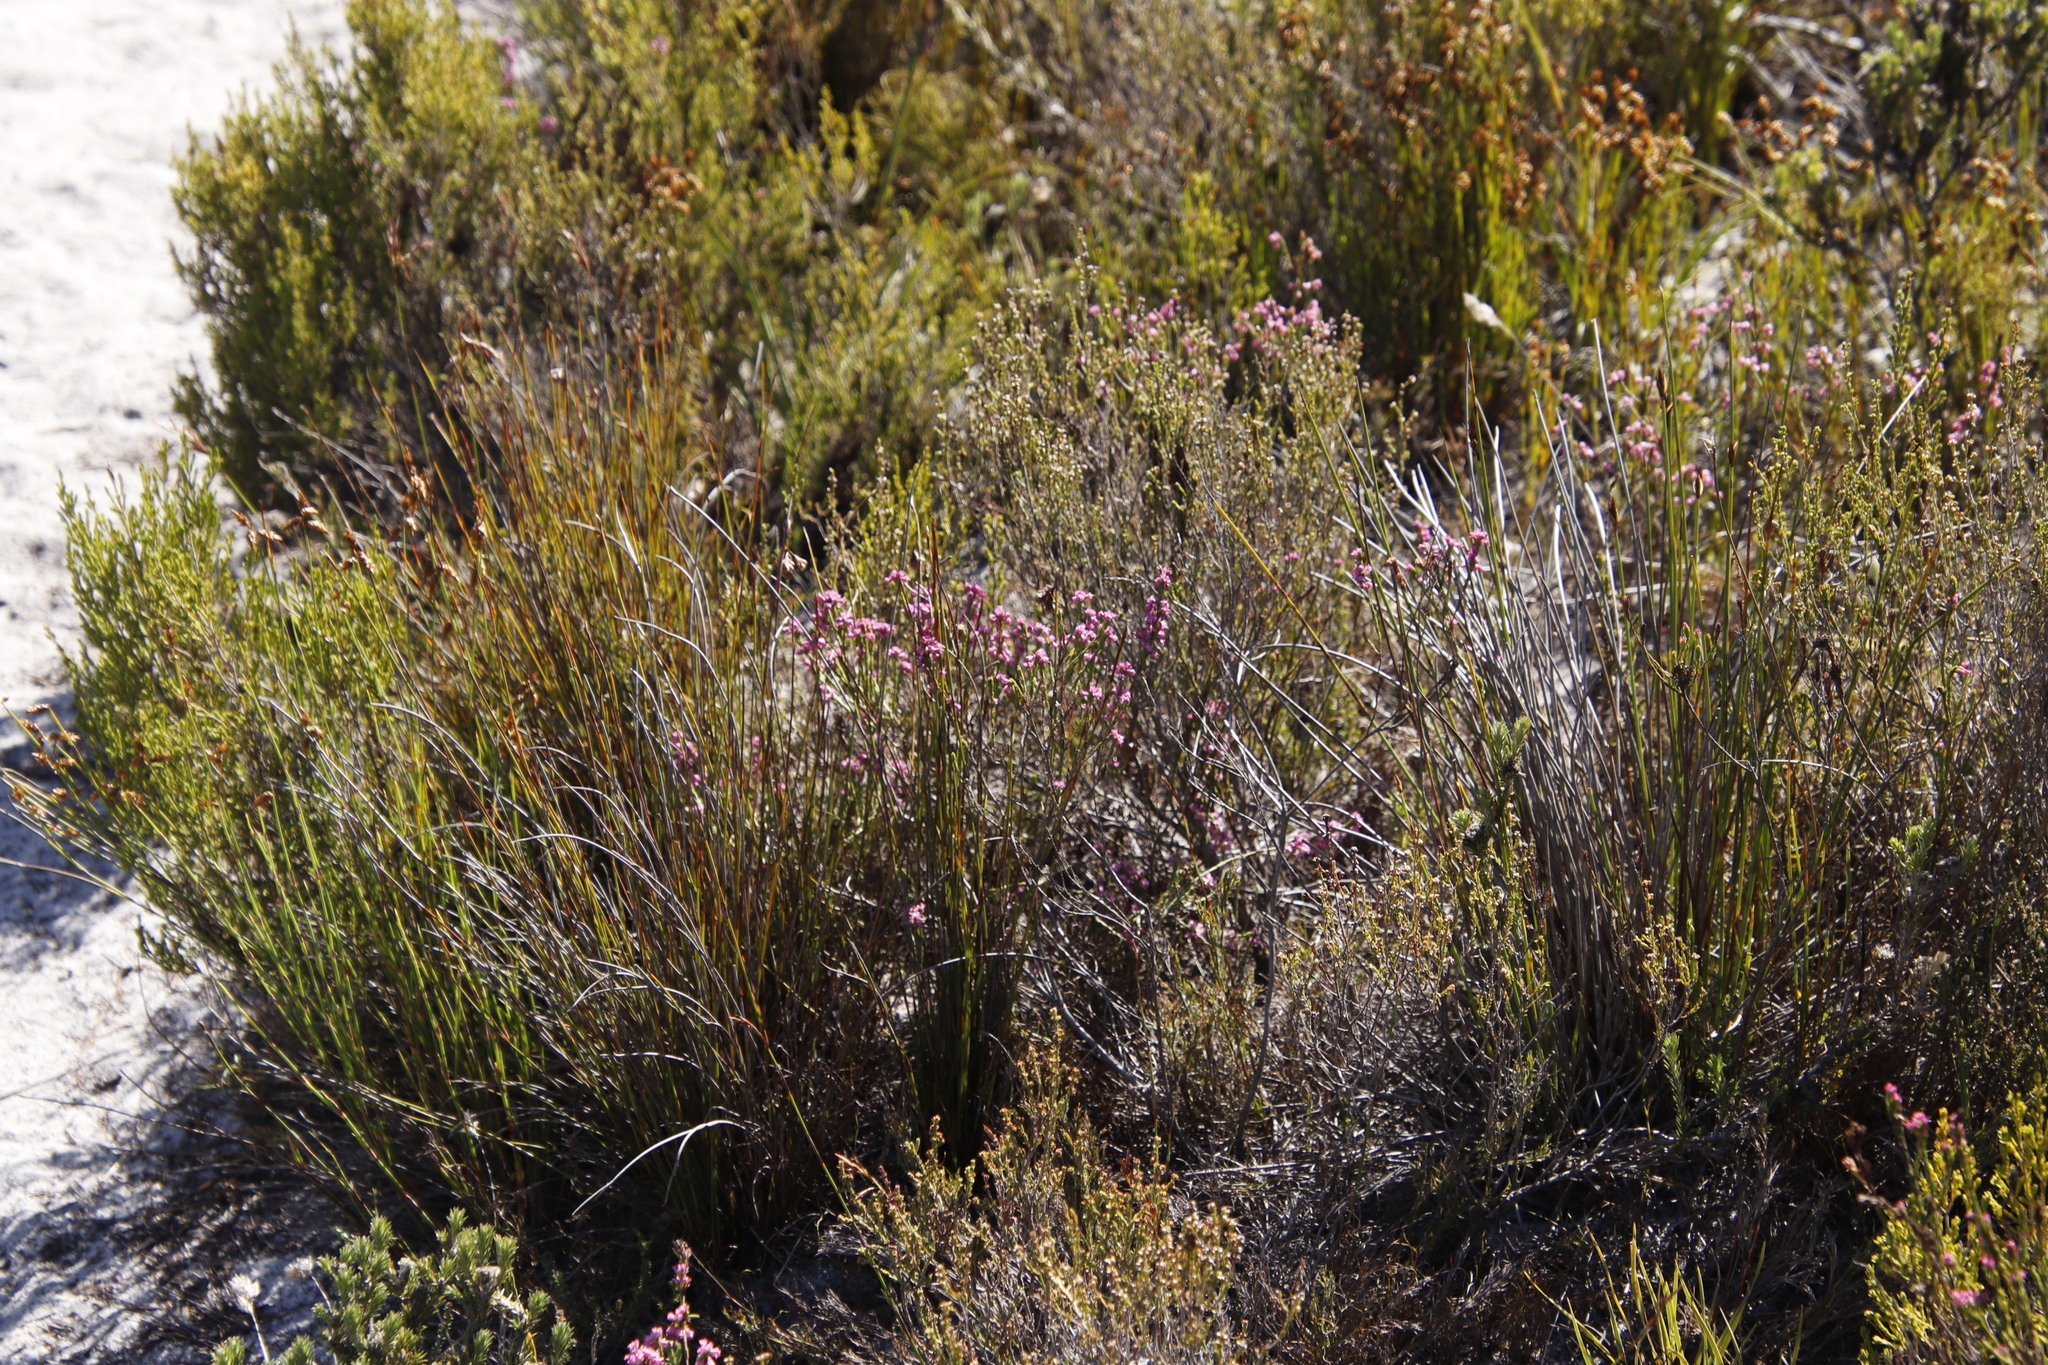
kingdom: Plantae
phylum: Tracheophyta
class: Magnoliopsida
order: Ericales
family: Ericaceae
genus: Erica
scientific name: Erica corifolia
